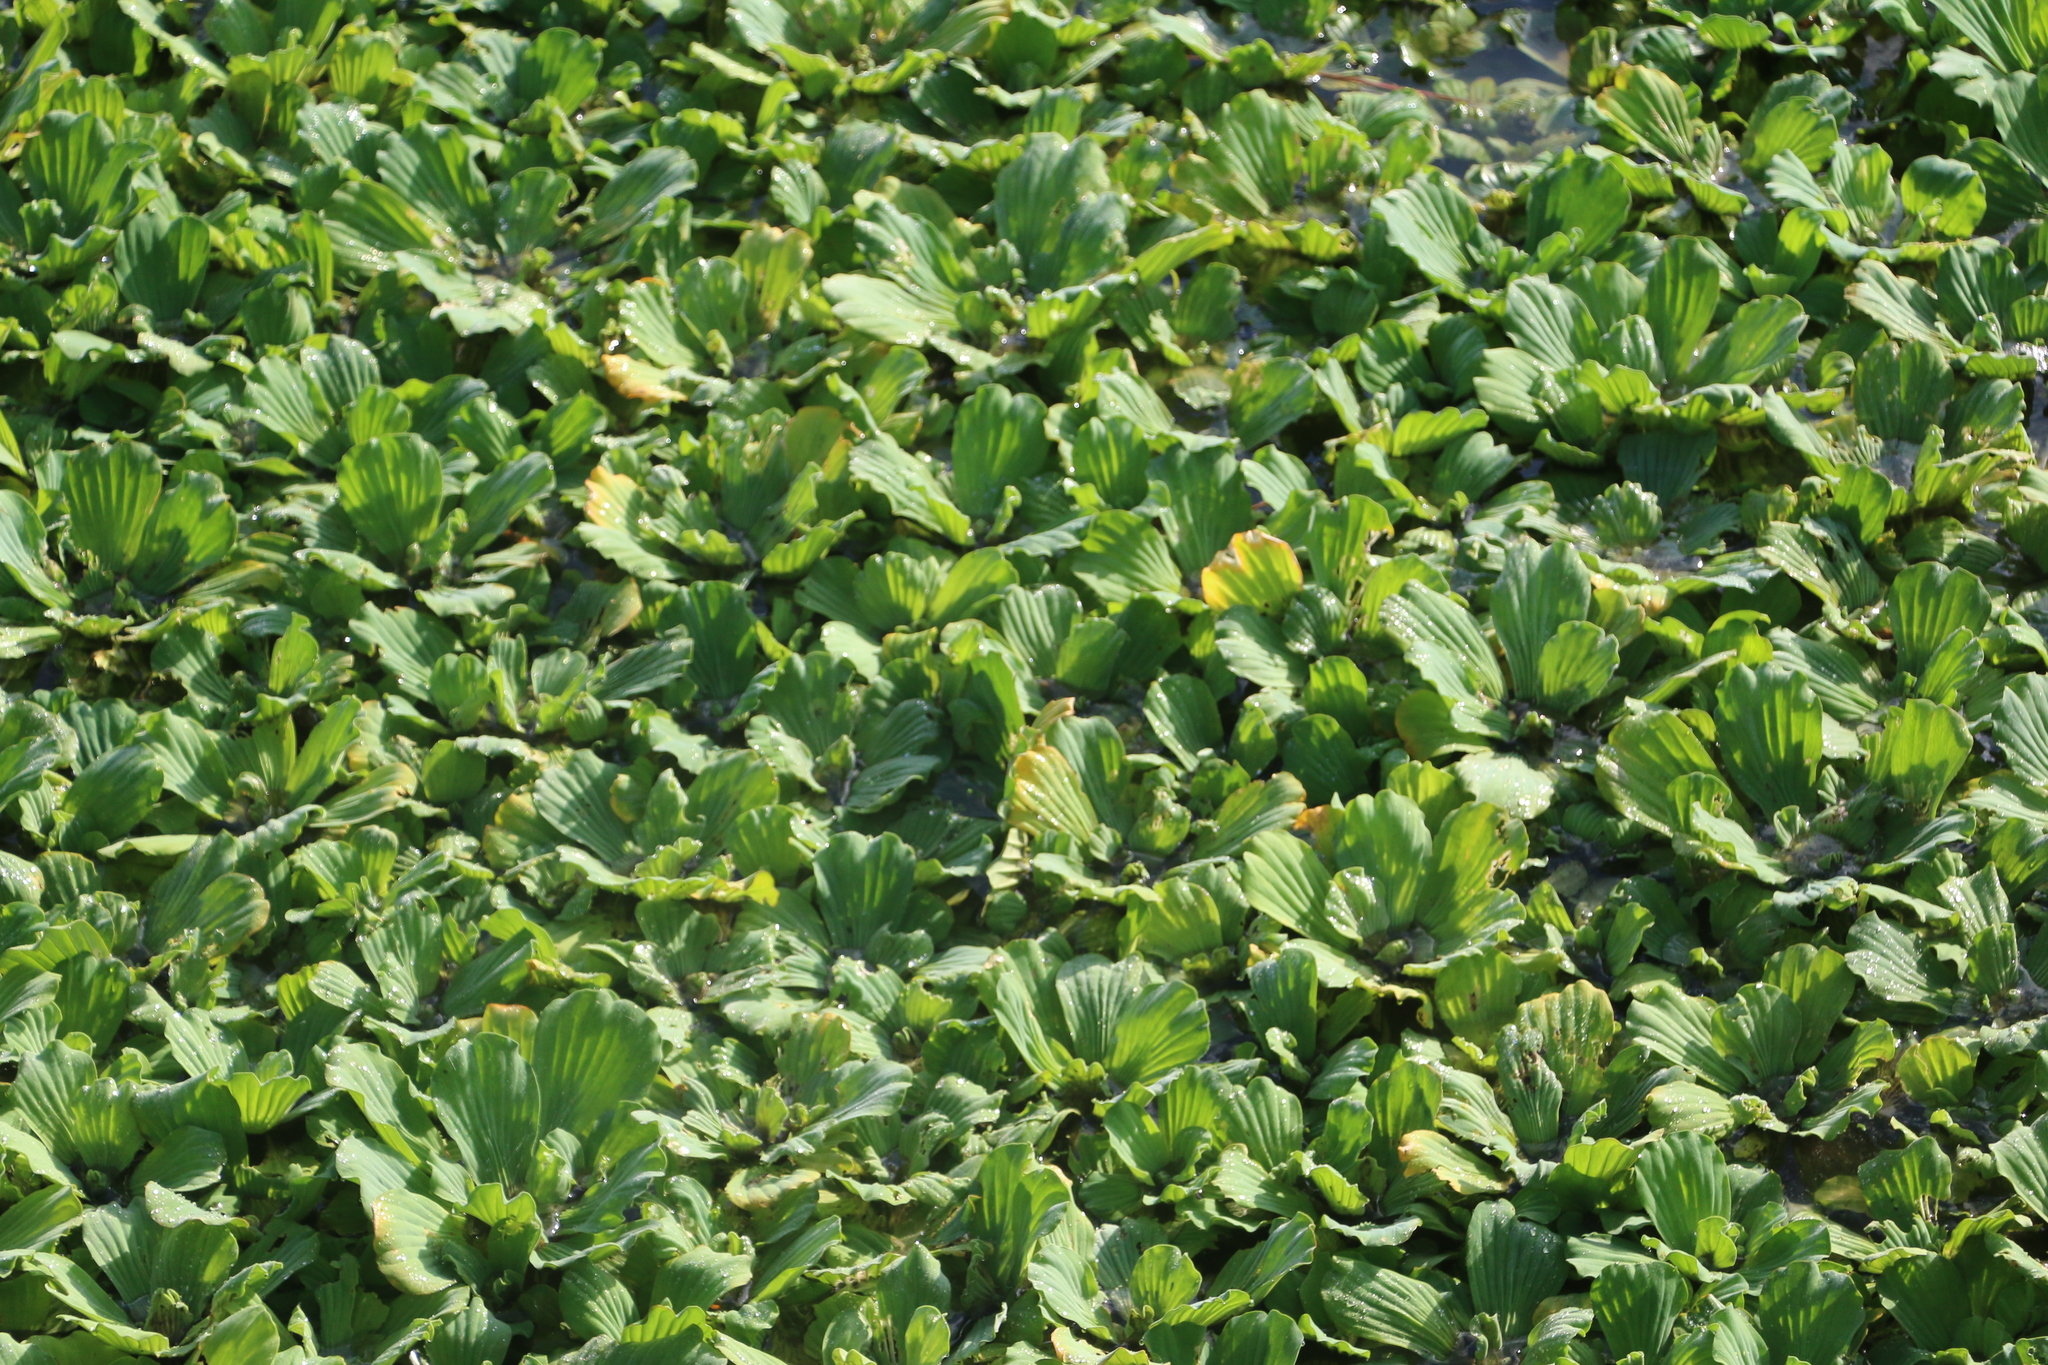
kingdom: Plantae
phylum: Tracheophyta
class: Liliopsida
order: Alismatales
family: Araceae
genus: Pistia
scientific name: Pistia stratiotes
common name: Water lettuce
